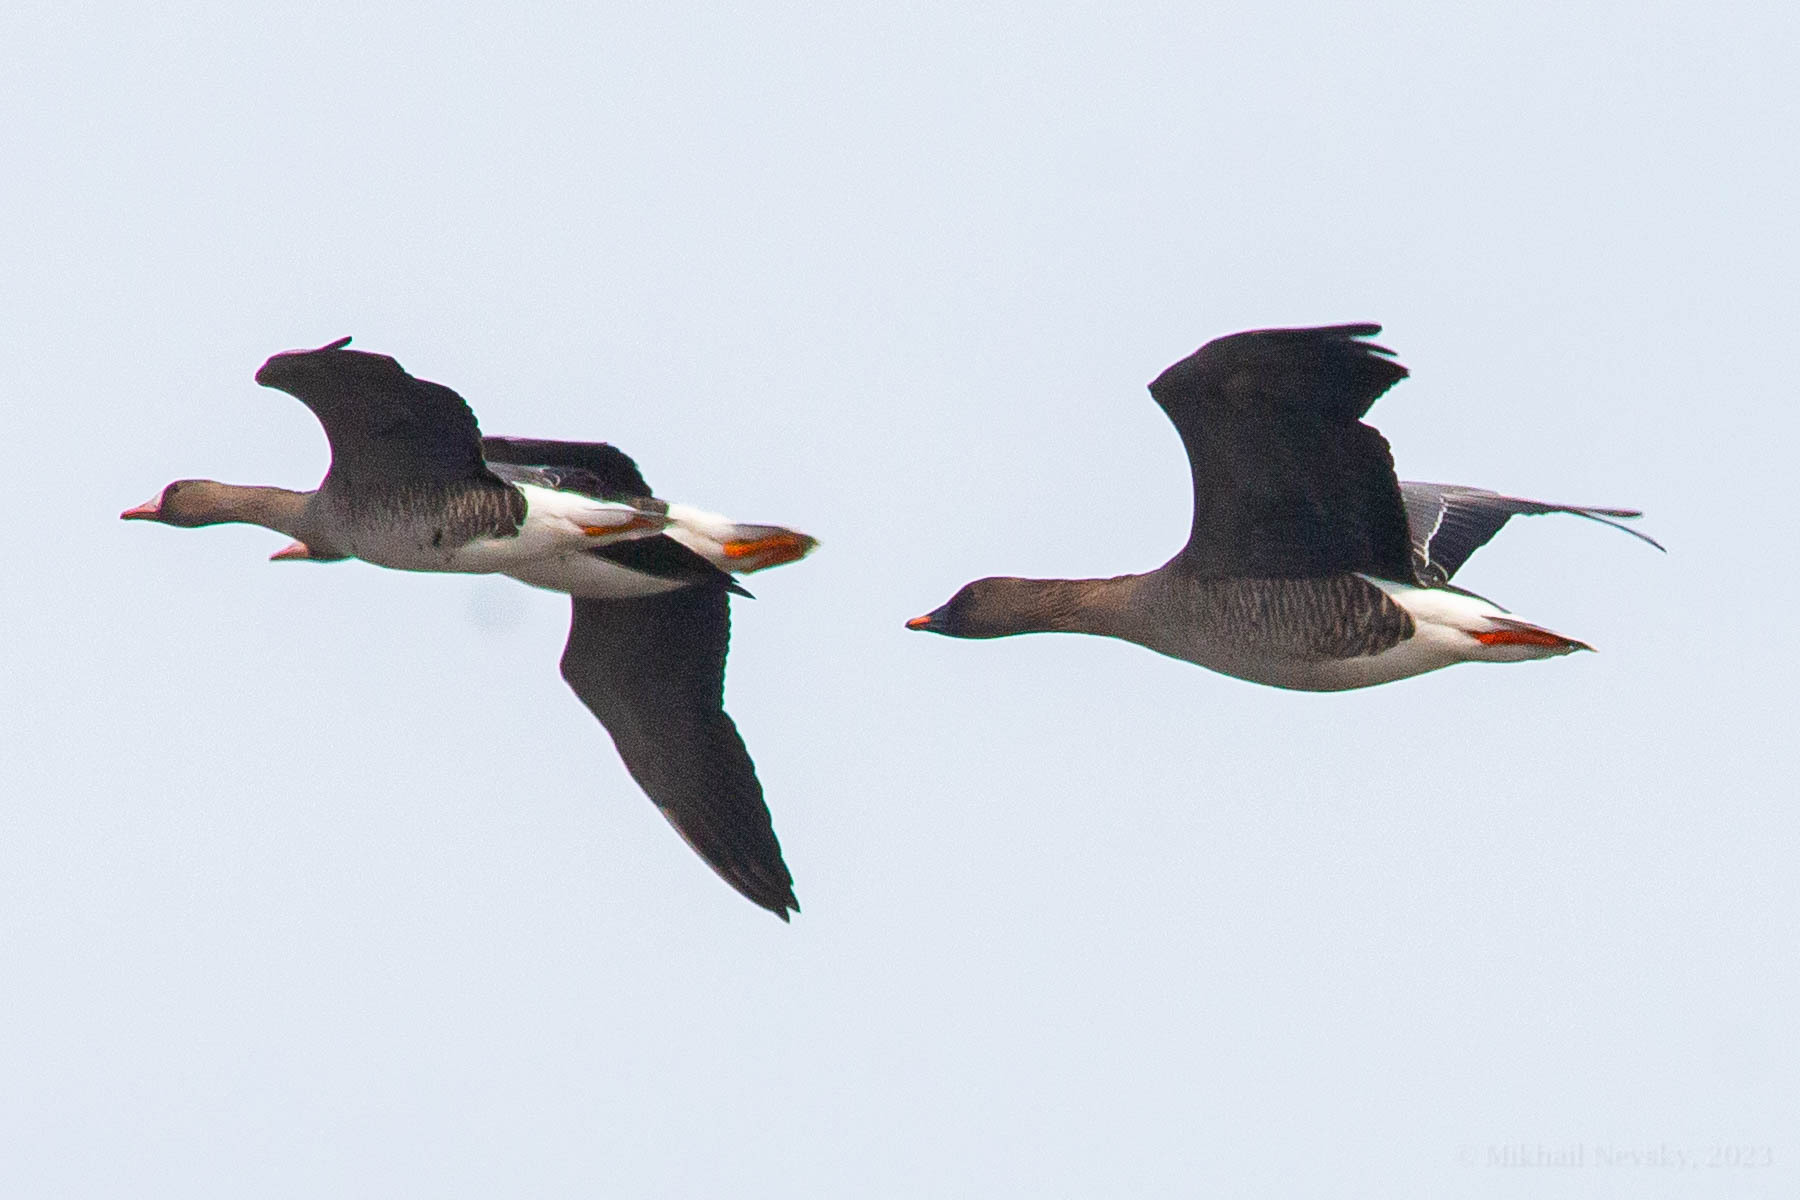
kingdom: Animalia
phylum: Chordata
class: Aves
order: Anseriformes
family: Anatidae
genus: Anser
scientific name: Anser serrirostris
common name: Tundra bean goose
